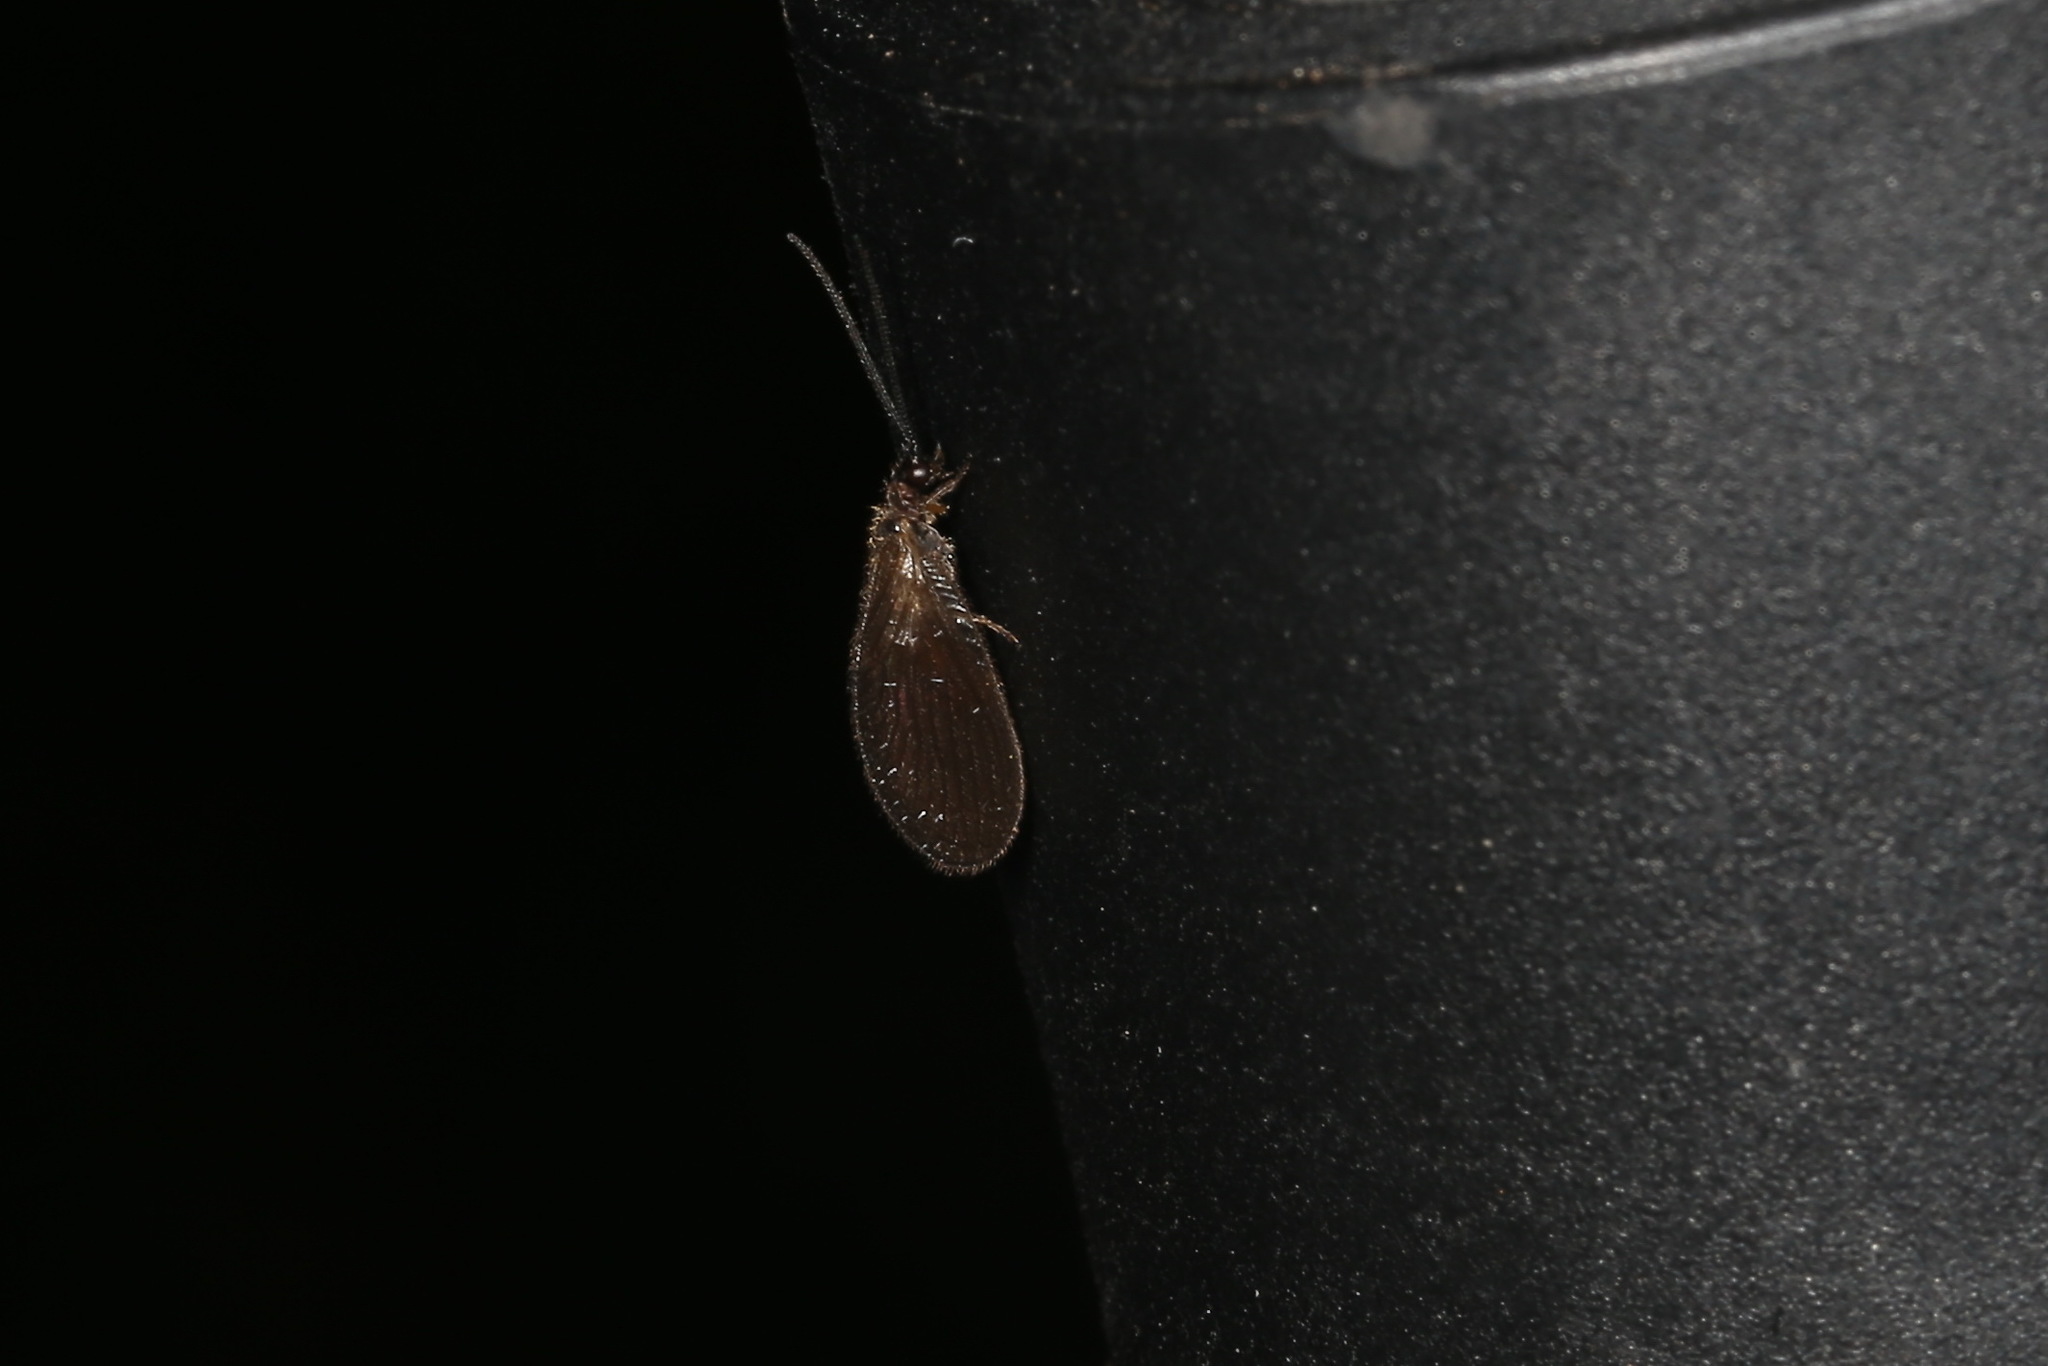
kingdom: Animalia
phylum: Arthropoda
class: Insecta
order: Neuroptera
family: Sisyridae
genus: Sisyra
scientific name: Sisyra nigra
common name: Black spongillafly
